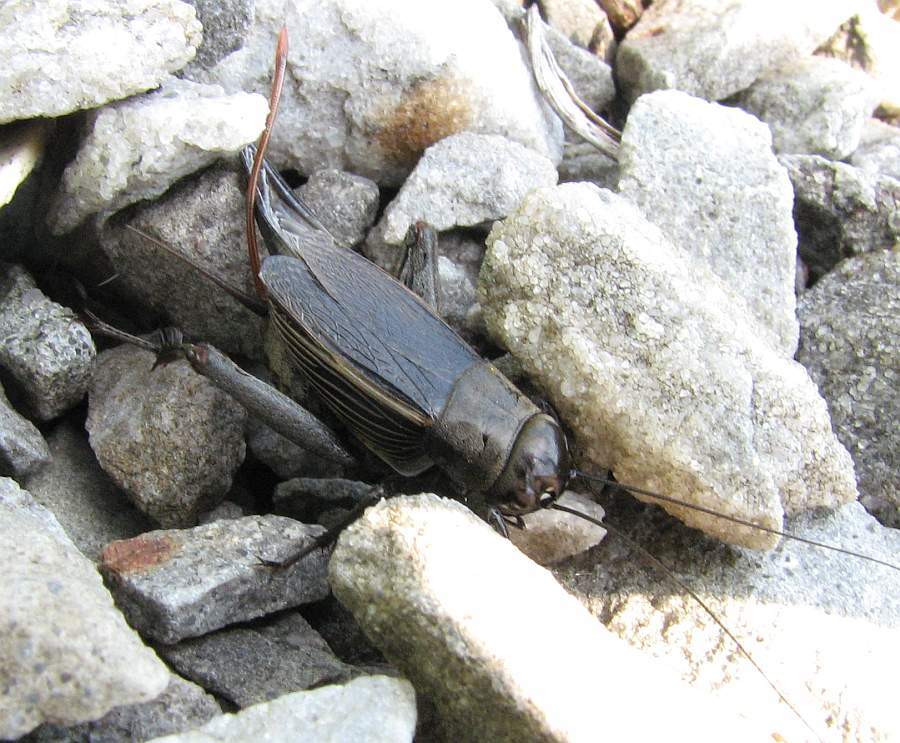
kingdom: Animalia
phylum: Arthropoda
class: Insecta
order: Orthoptera
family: Gryllidae
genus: Gryllus
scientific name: Gryllus pennsylvanicus
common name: Fall field cricket
